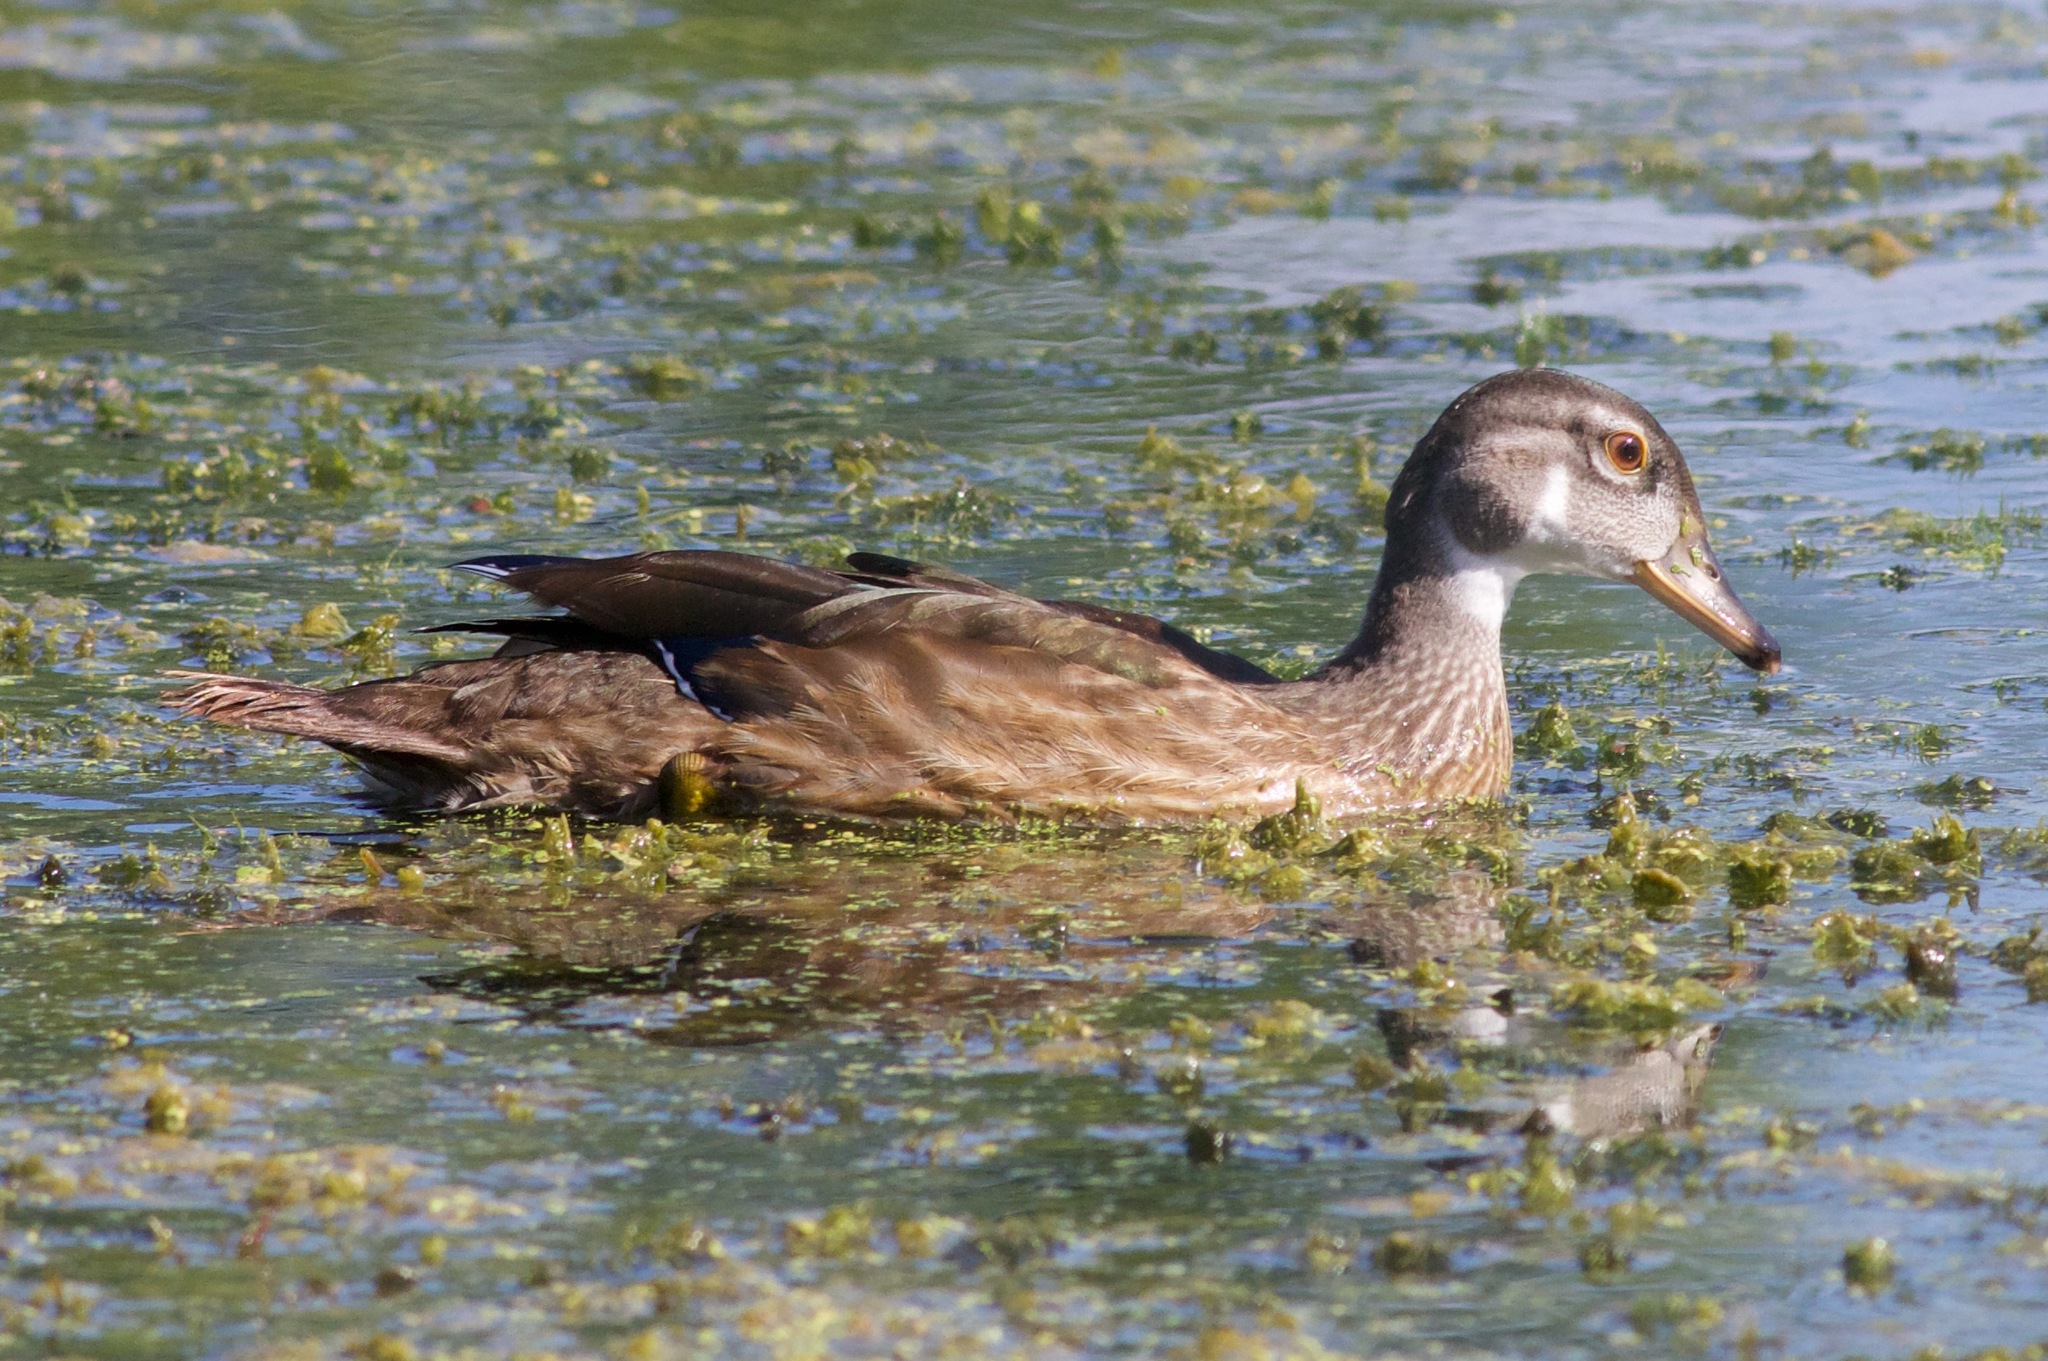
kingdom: Animalia
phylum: Chordata
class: Aves
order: Anseriformes
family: Anatidae
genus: Aix
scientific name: Aix sponsa
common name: Wood duck
